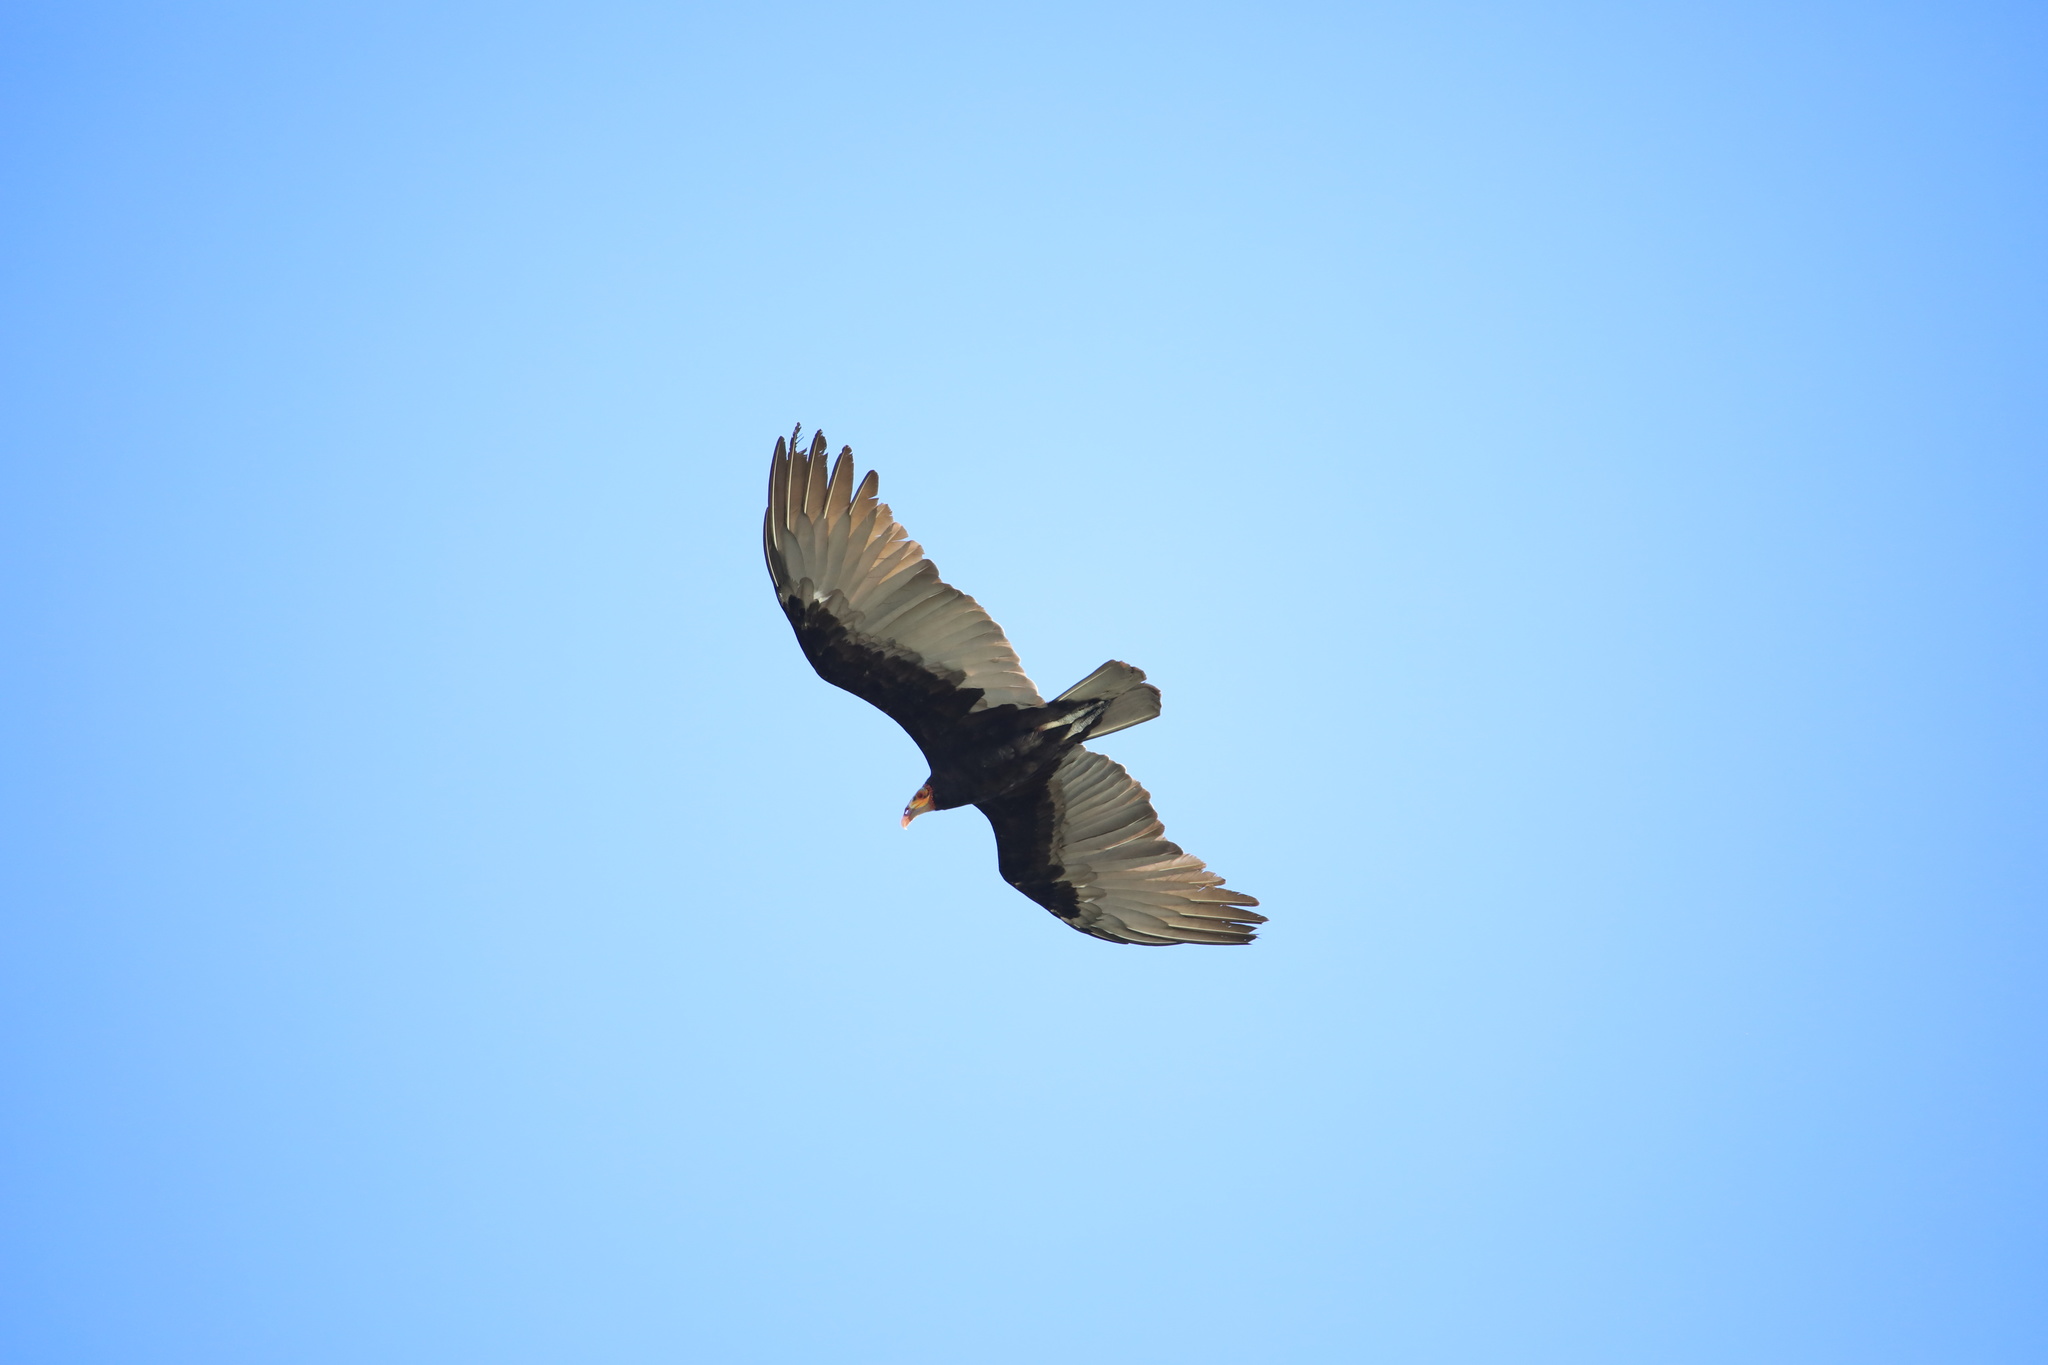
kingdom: Animalia
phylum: Chordata
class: Aves
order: Accipitriformes
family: Cathartidae
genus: Cathartes
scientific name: Cathartes burrovianus
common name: Lesser yellow-headed vulture
